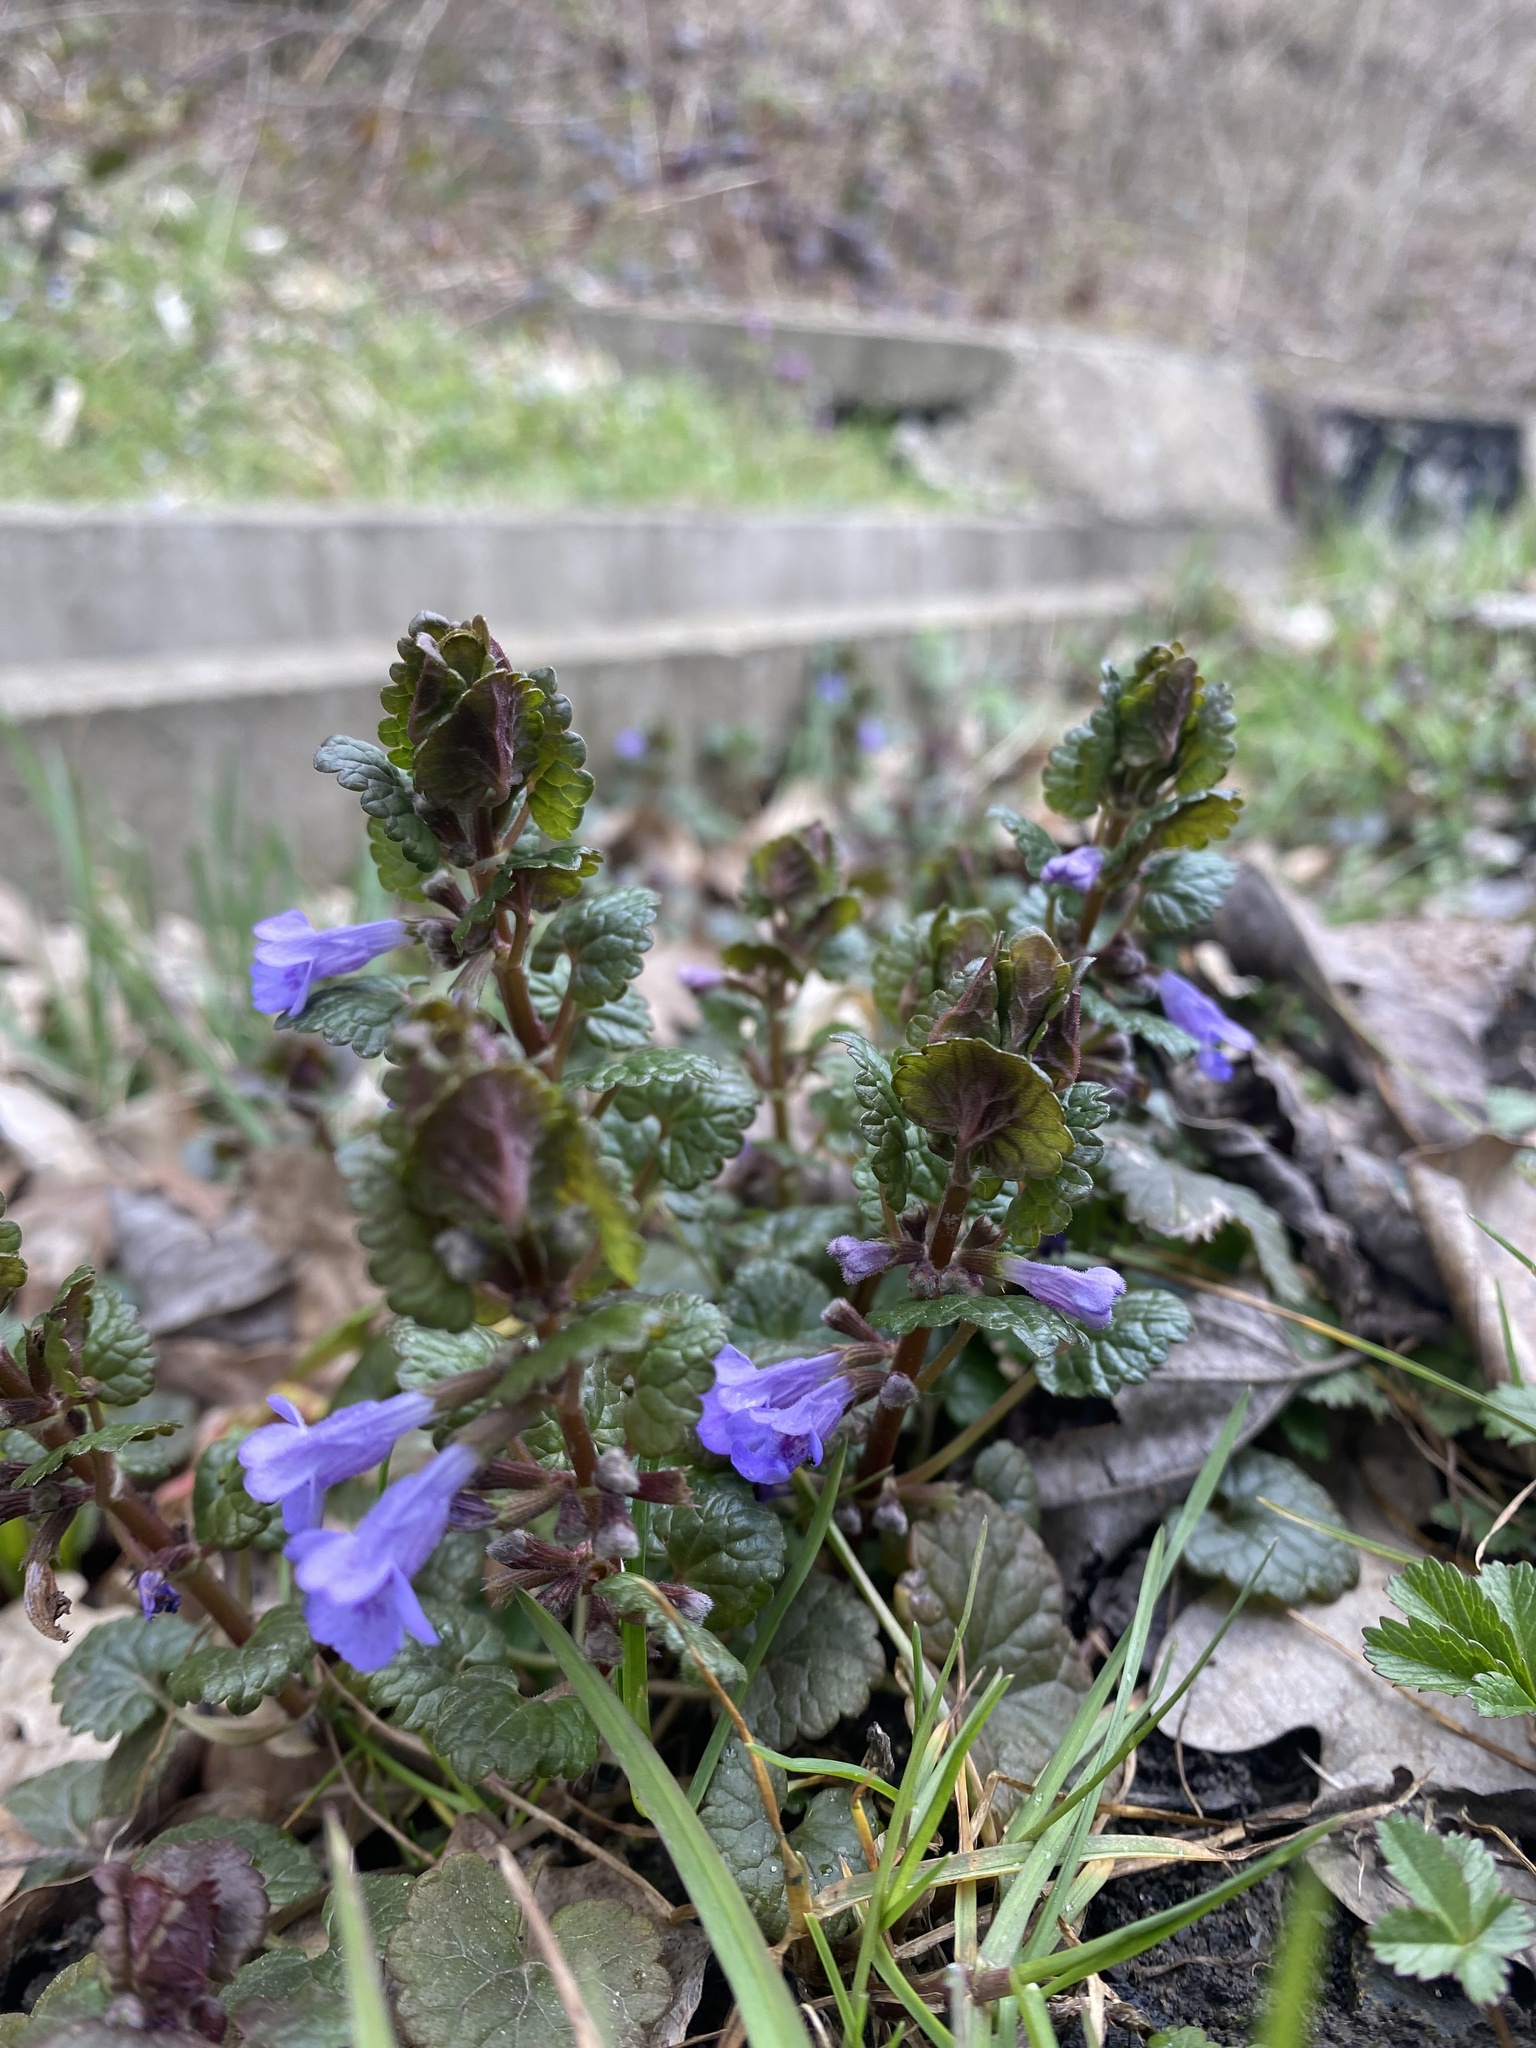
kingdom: Plantae
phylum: Tracheophyta
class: Magnoliopsida
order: Lamiales
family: Lamiaceae
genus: Glechoma
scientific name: Glechoma hederacea
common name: Ground ivy
